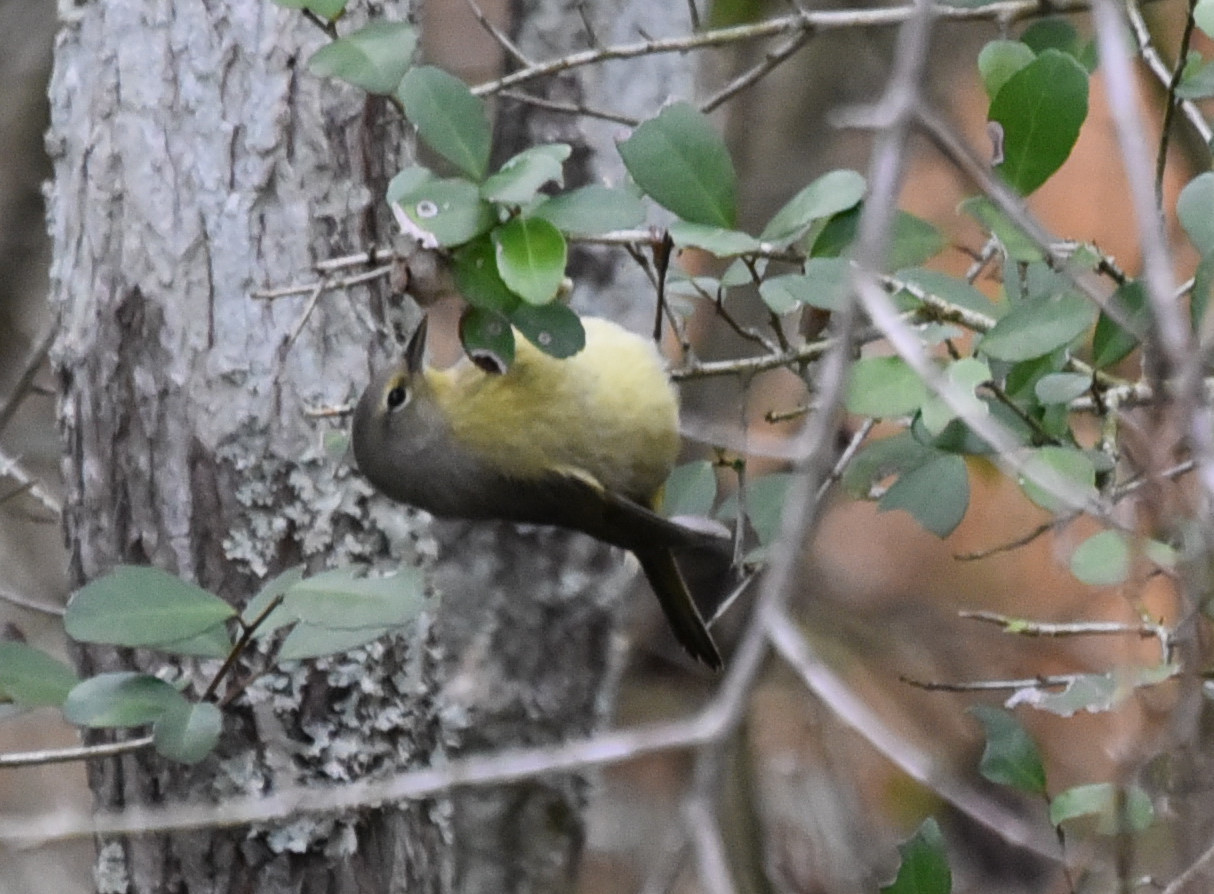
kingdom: Animalia
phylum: Chordata
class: Aves
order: Passeriformes
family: Parulidae
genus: Leiothlypis
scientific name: Leiothlypis celata
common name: Orange-crowned warbler
